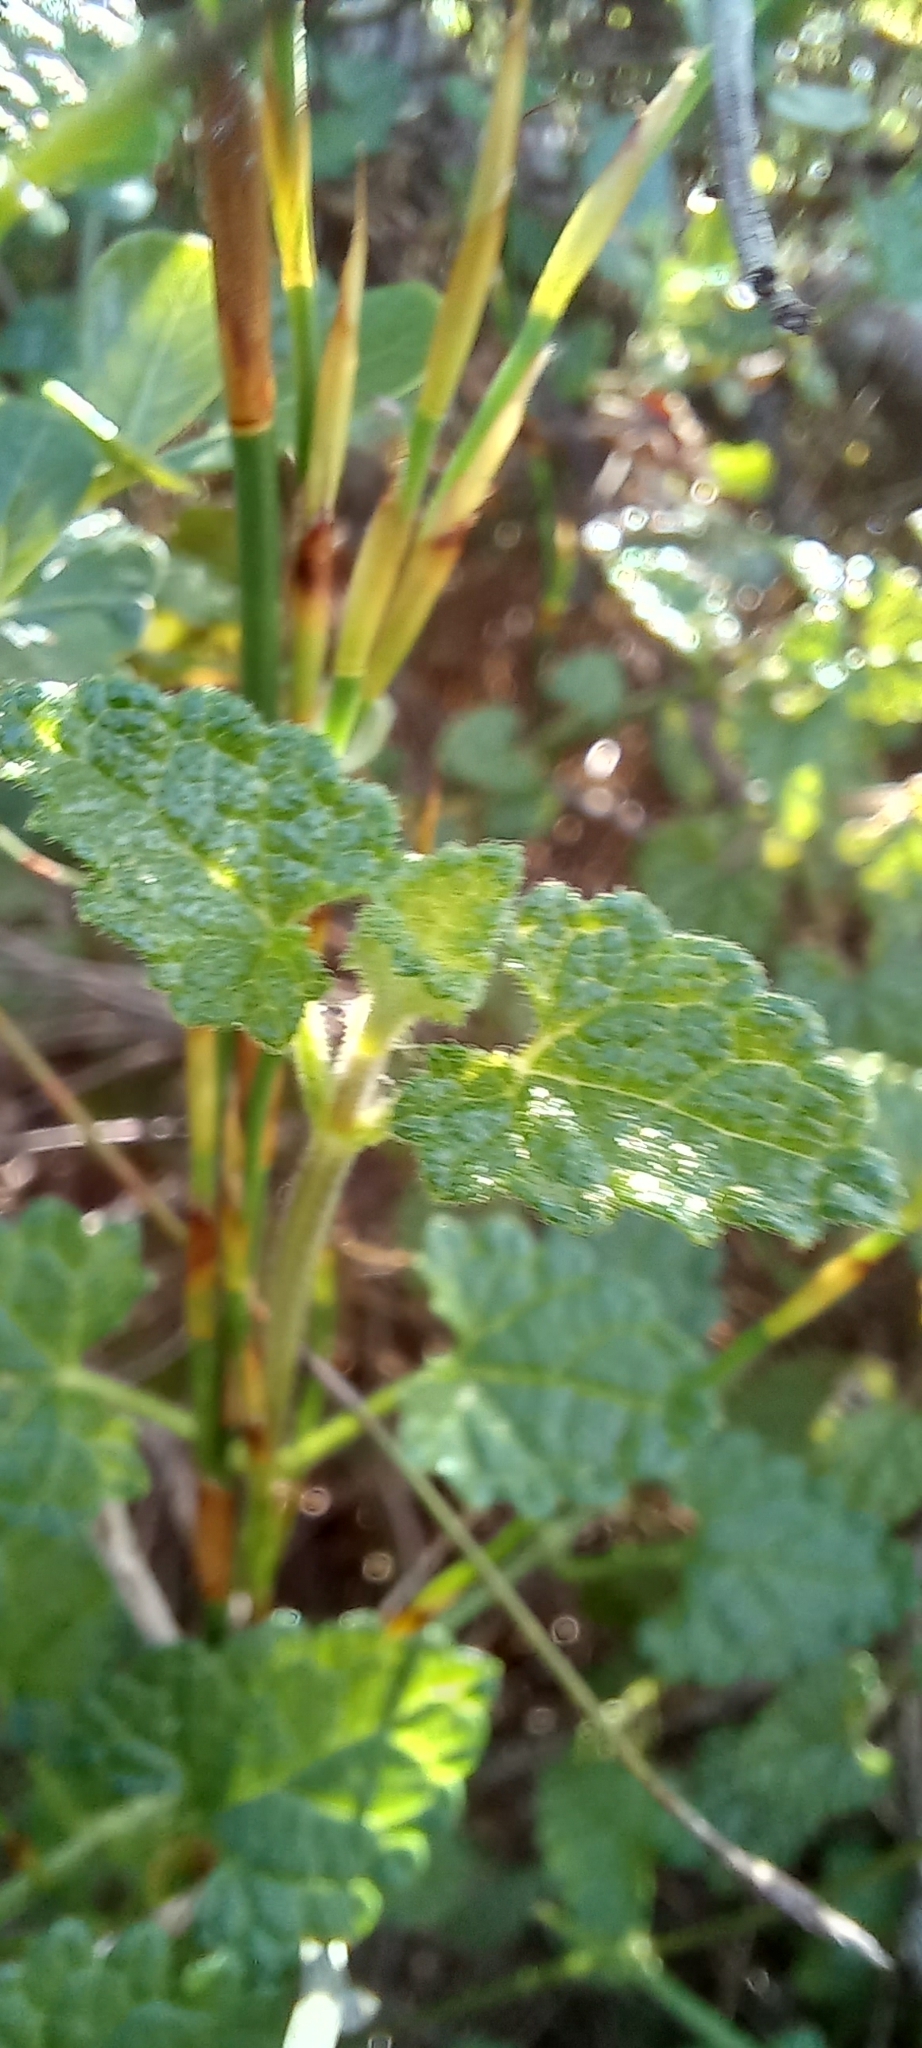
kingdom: Plantae
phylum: Tracheophyta
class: Magnoliopsida
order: Lamiales
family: Lamiaceae
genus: Stachys
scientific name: Stachys aethiopica
